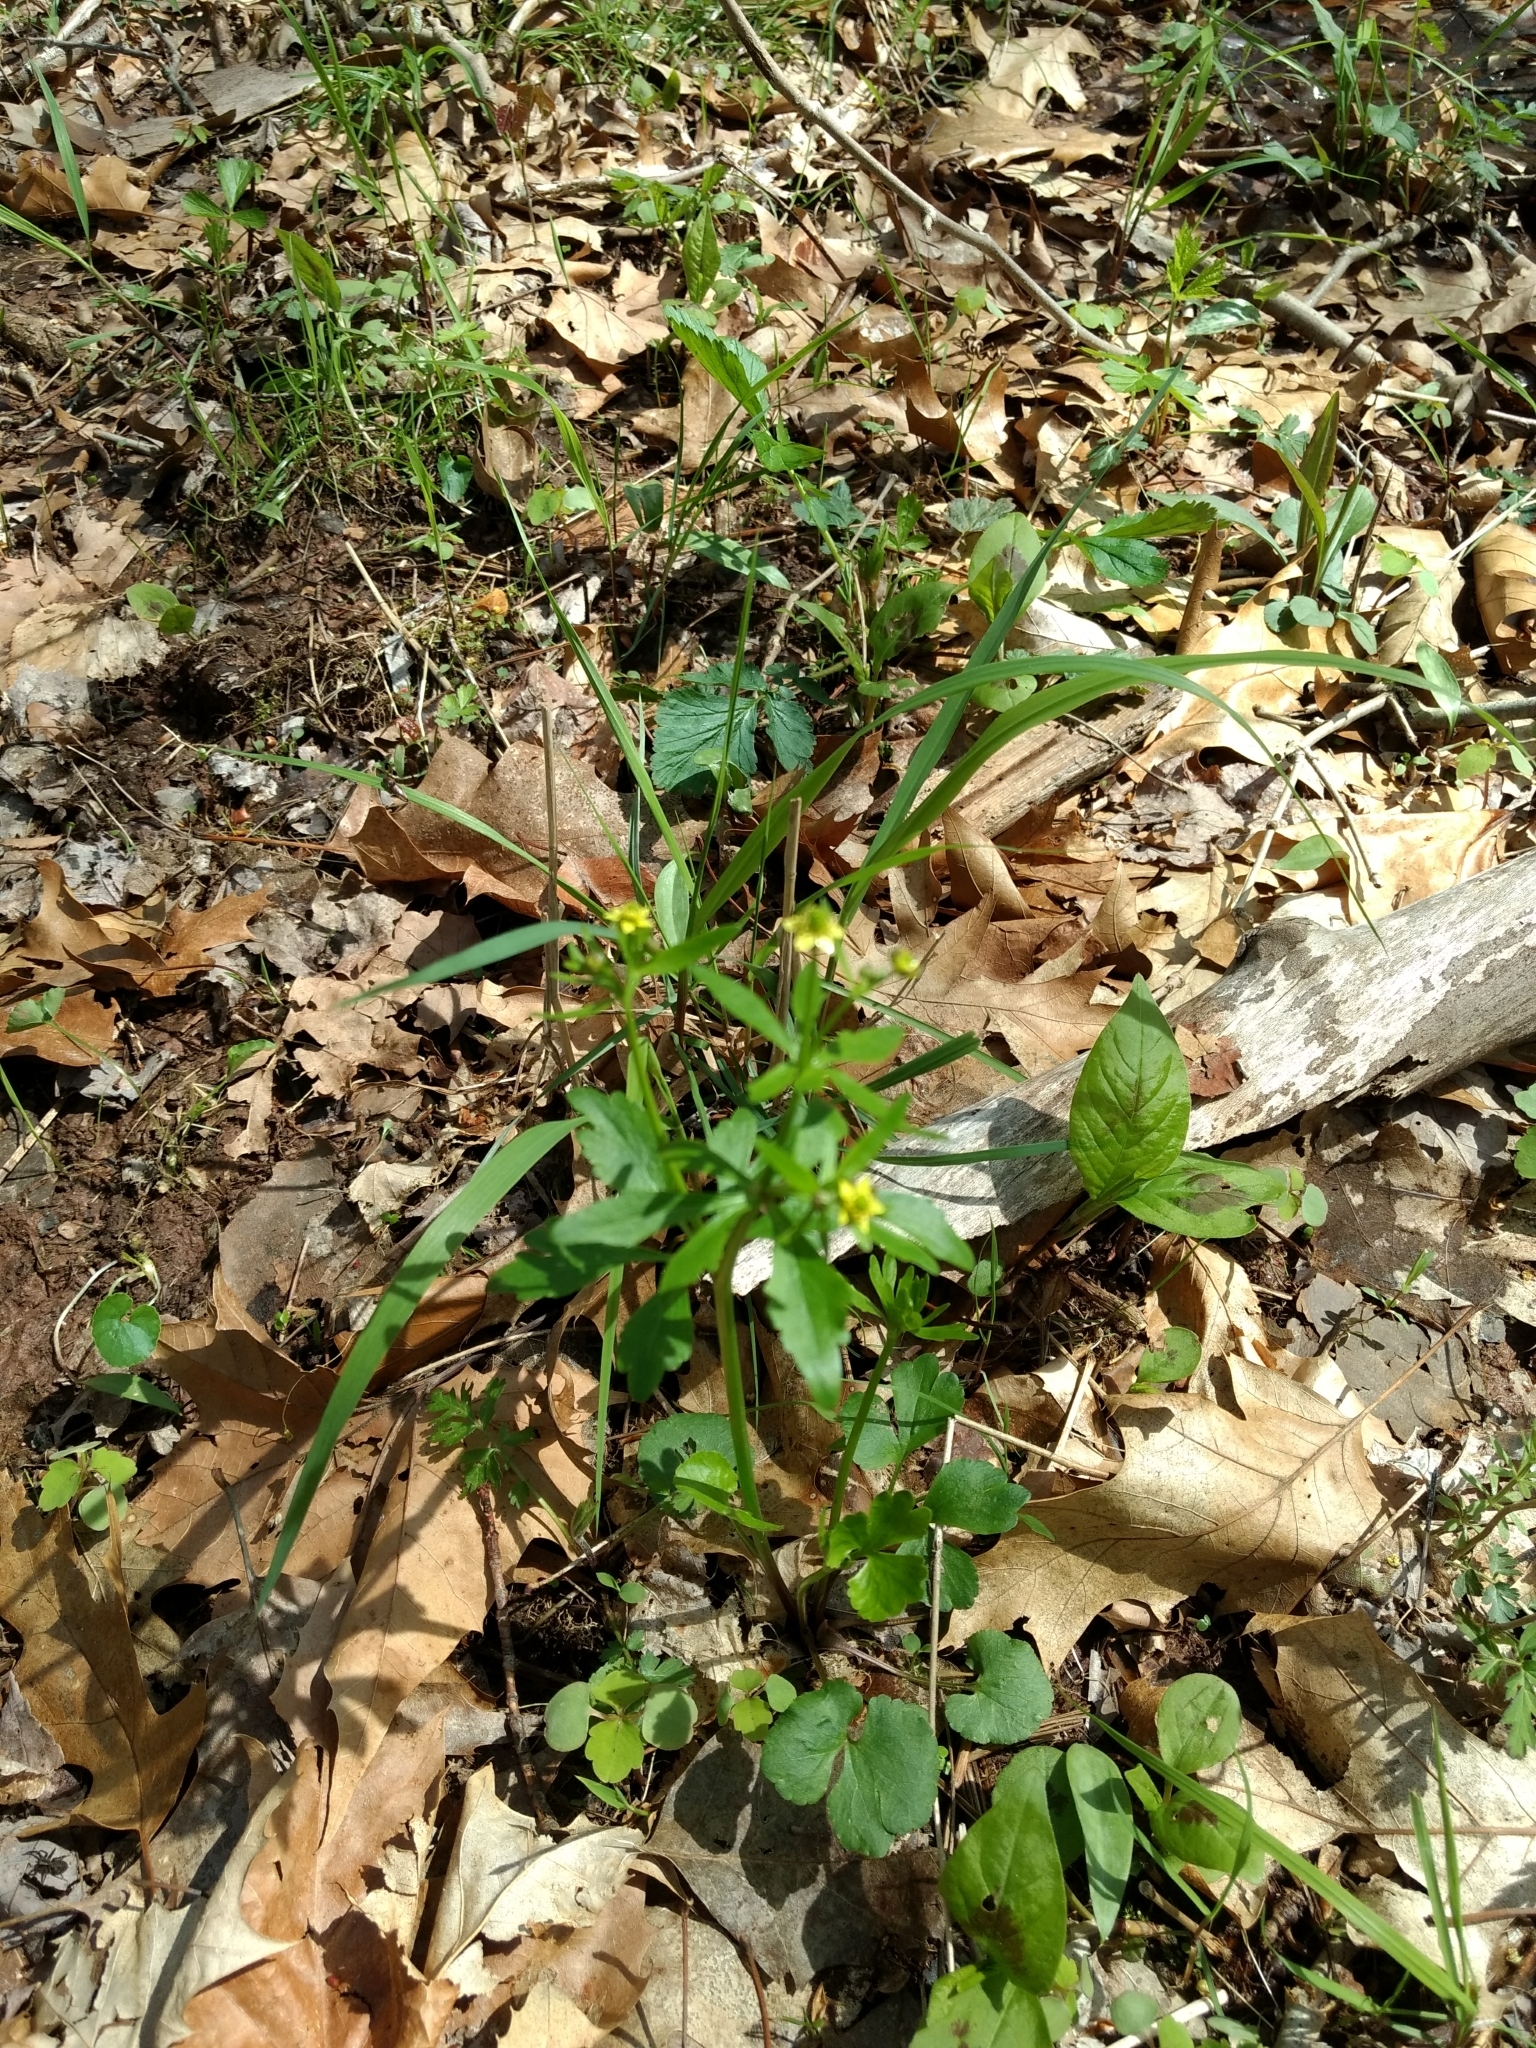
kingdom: Plantae
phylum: Tracheophyta
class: Magnoliopsida
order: Ranunculales
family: Ranunculaceae
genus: Ranunculus
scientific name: Ranunculus abortivus
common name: Early wood buttercup
